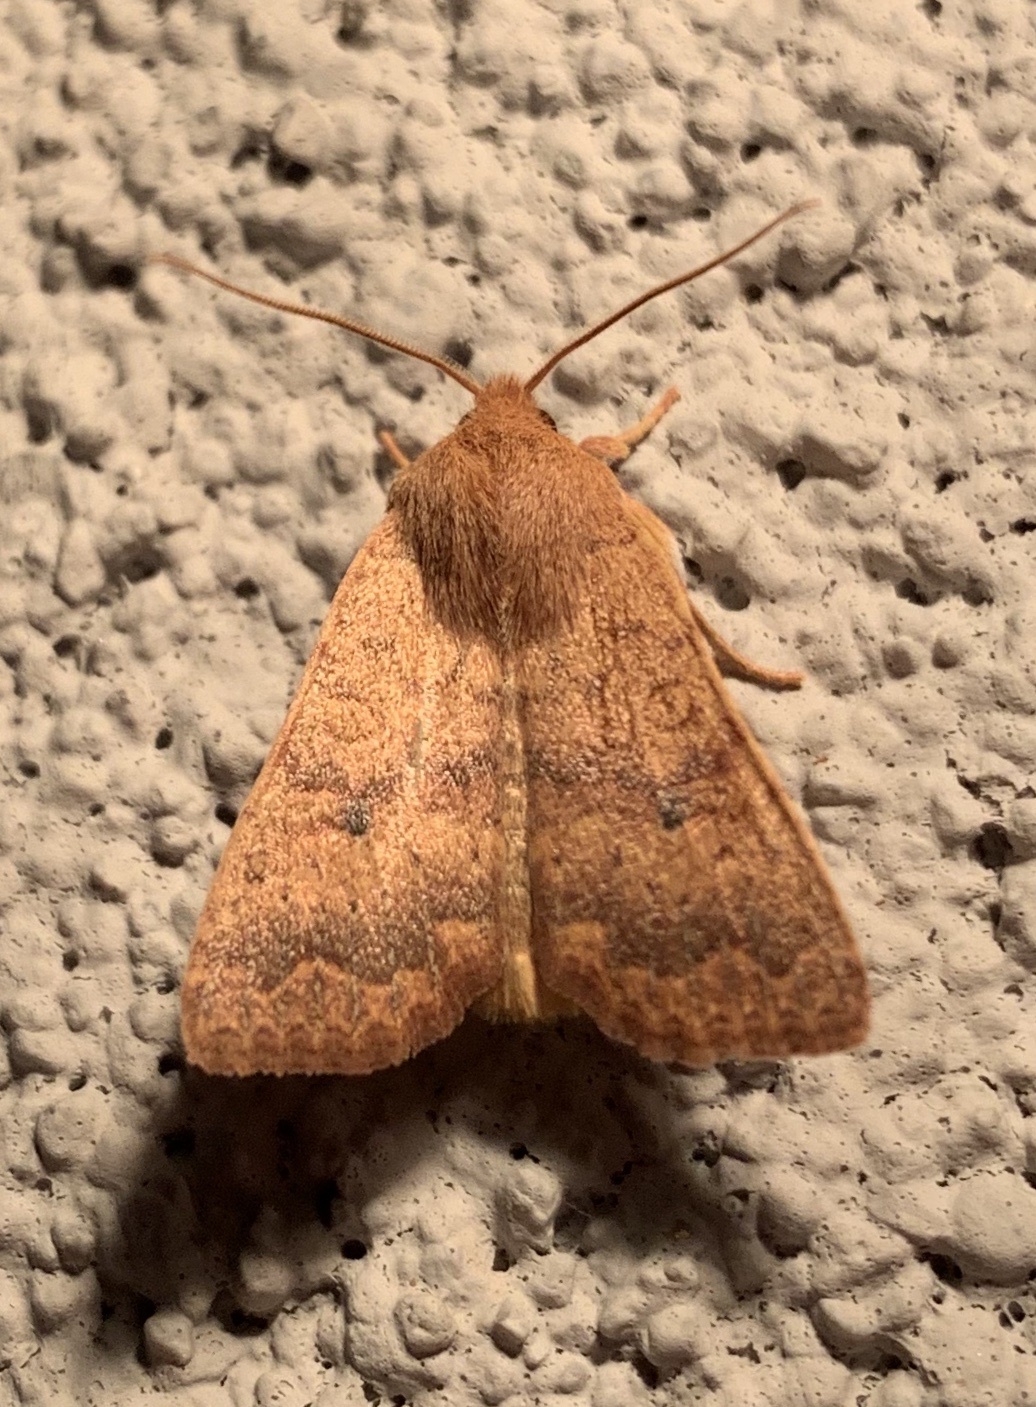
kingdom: Animalia
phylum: Arthropoda
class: Insecta
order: Lepidoptera
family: Noctuidae
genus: Agrochola
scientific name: Agrochola bicolorago
